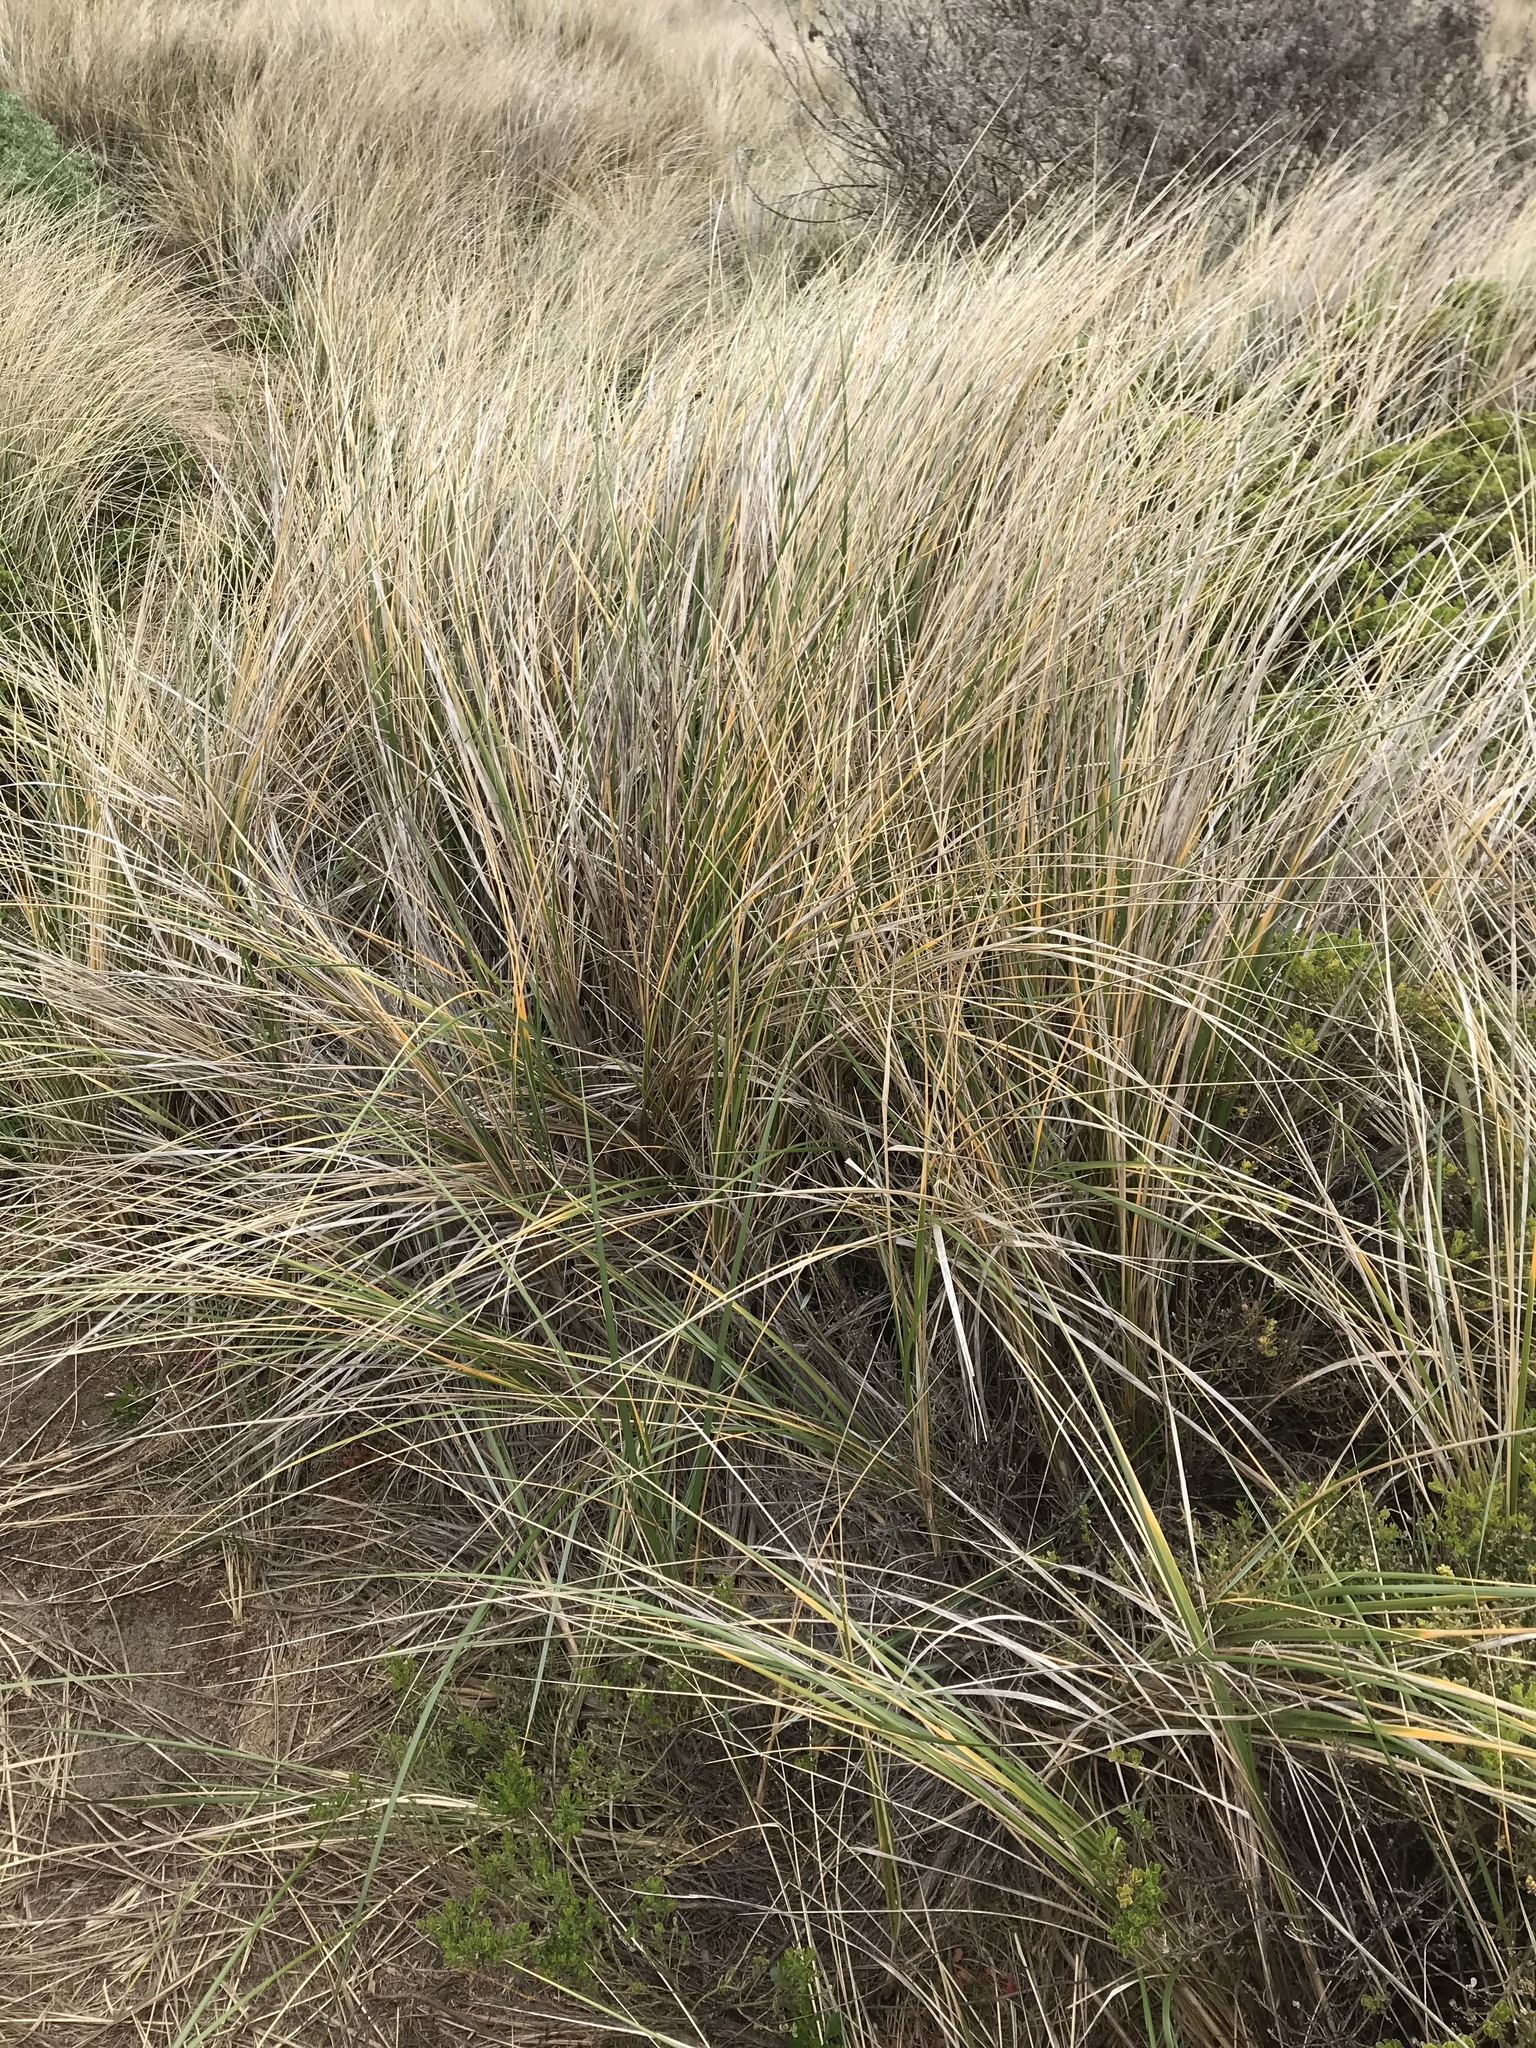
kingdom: Plantae
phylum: Tracheophyta
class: Liliopsida
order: Poales
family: Poaceae
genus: Calamagrostis
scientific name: Calamagrostis arenaria
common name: European beachgrass
